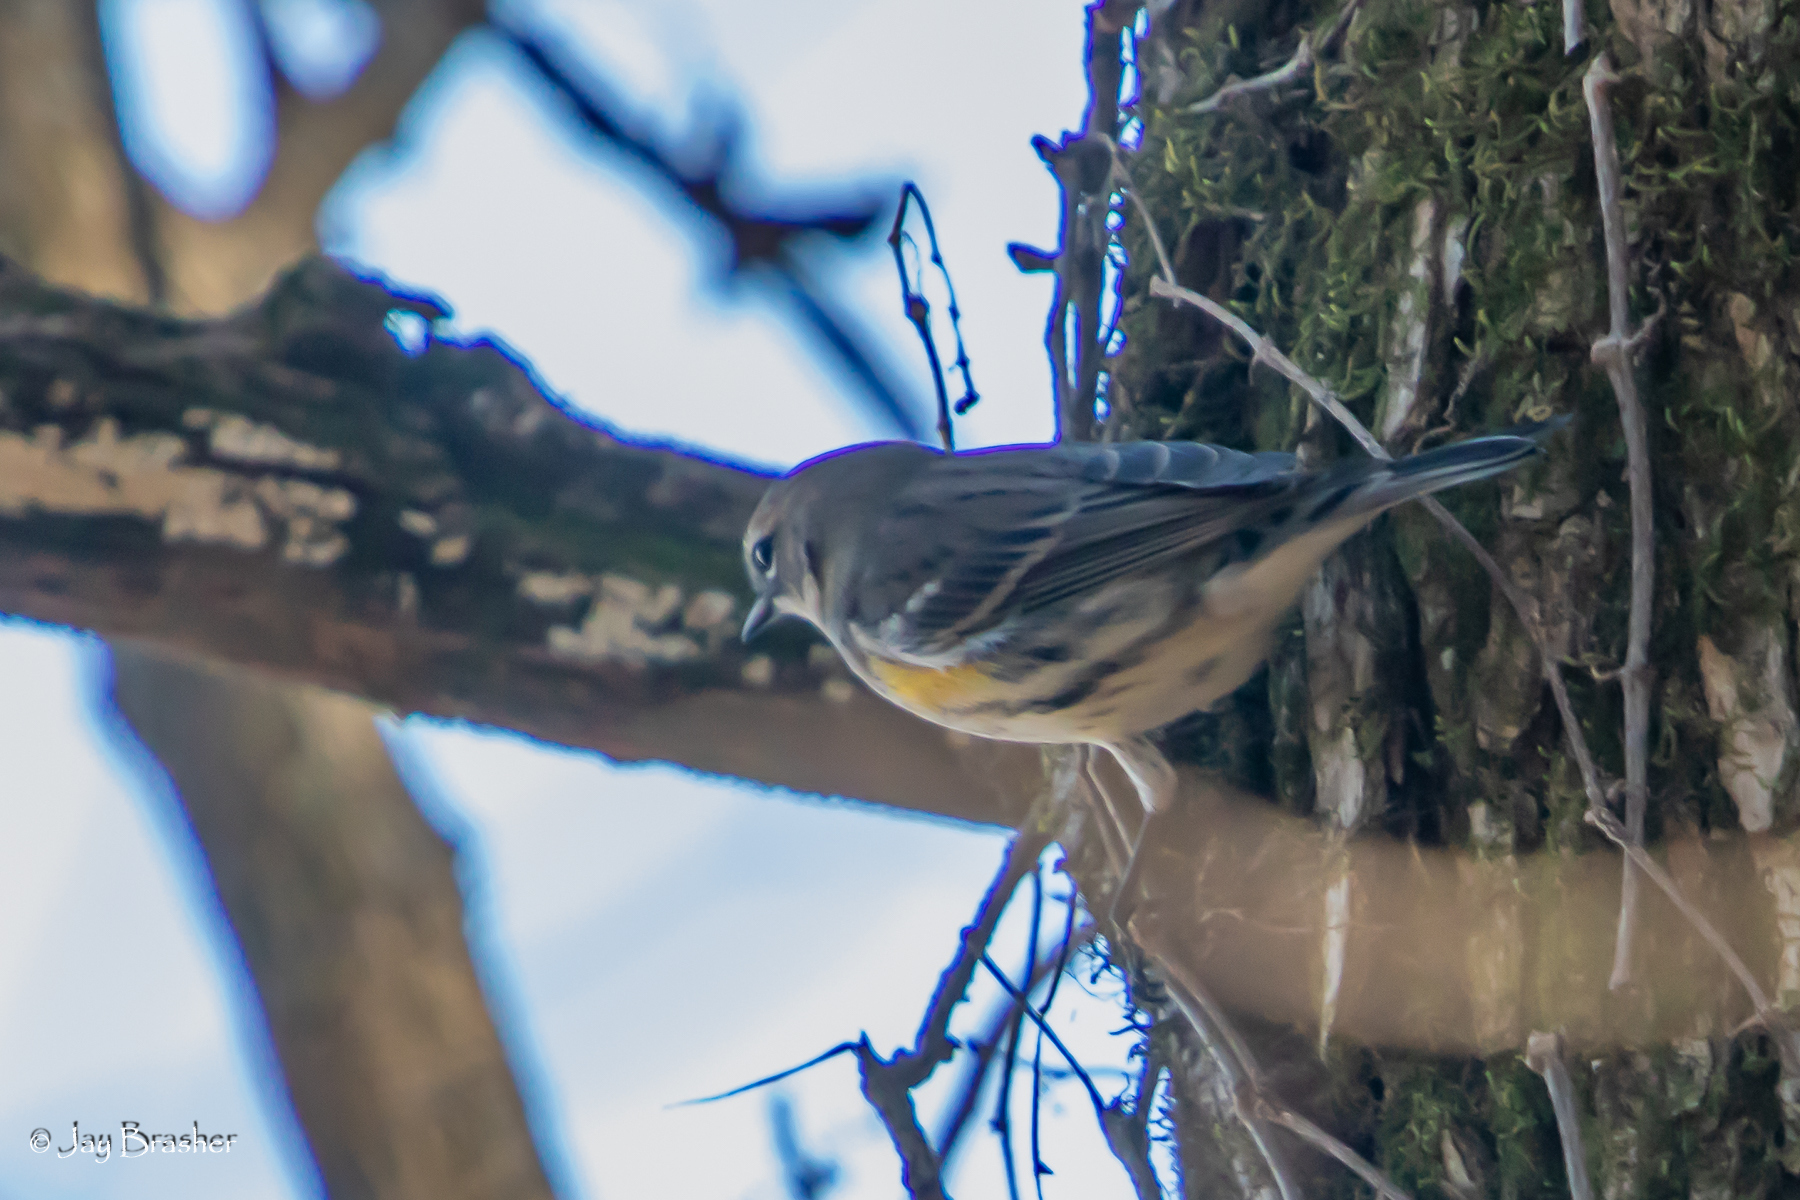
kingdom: Animalia
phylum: Chordata
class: Aves
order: Passeriformes
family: Parulidae
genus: Setophaga
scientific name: Setophaga coronata
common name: Myrtle warbler
